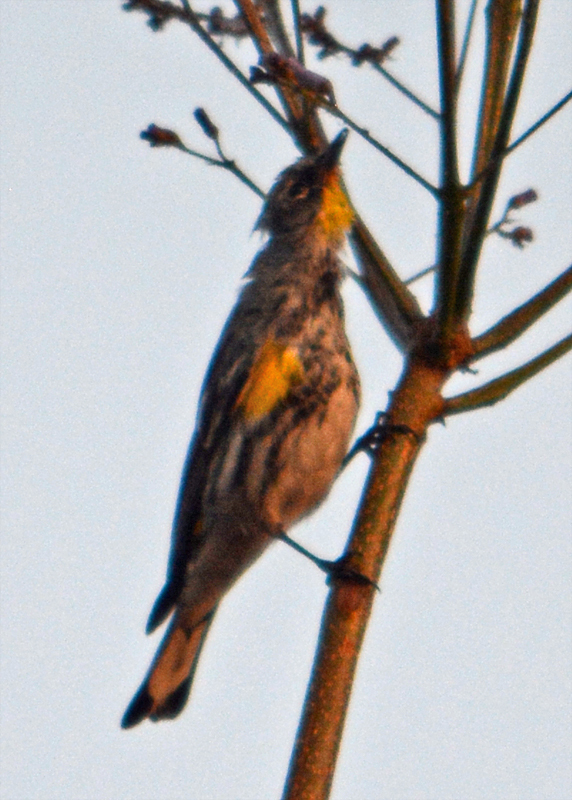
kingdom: Animalia
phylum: Chordata
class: Aves
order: Passeriformes
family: Parulidae
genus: Setophaga
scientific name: Setophaga auduboni
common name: Audubon's warbler
